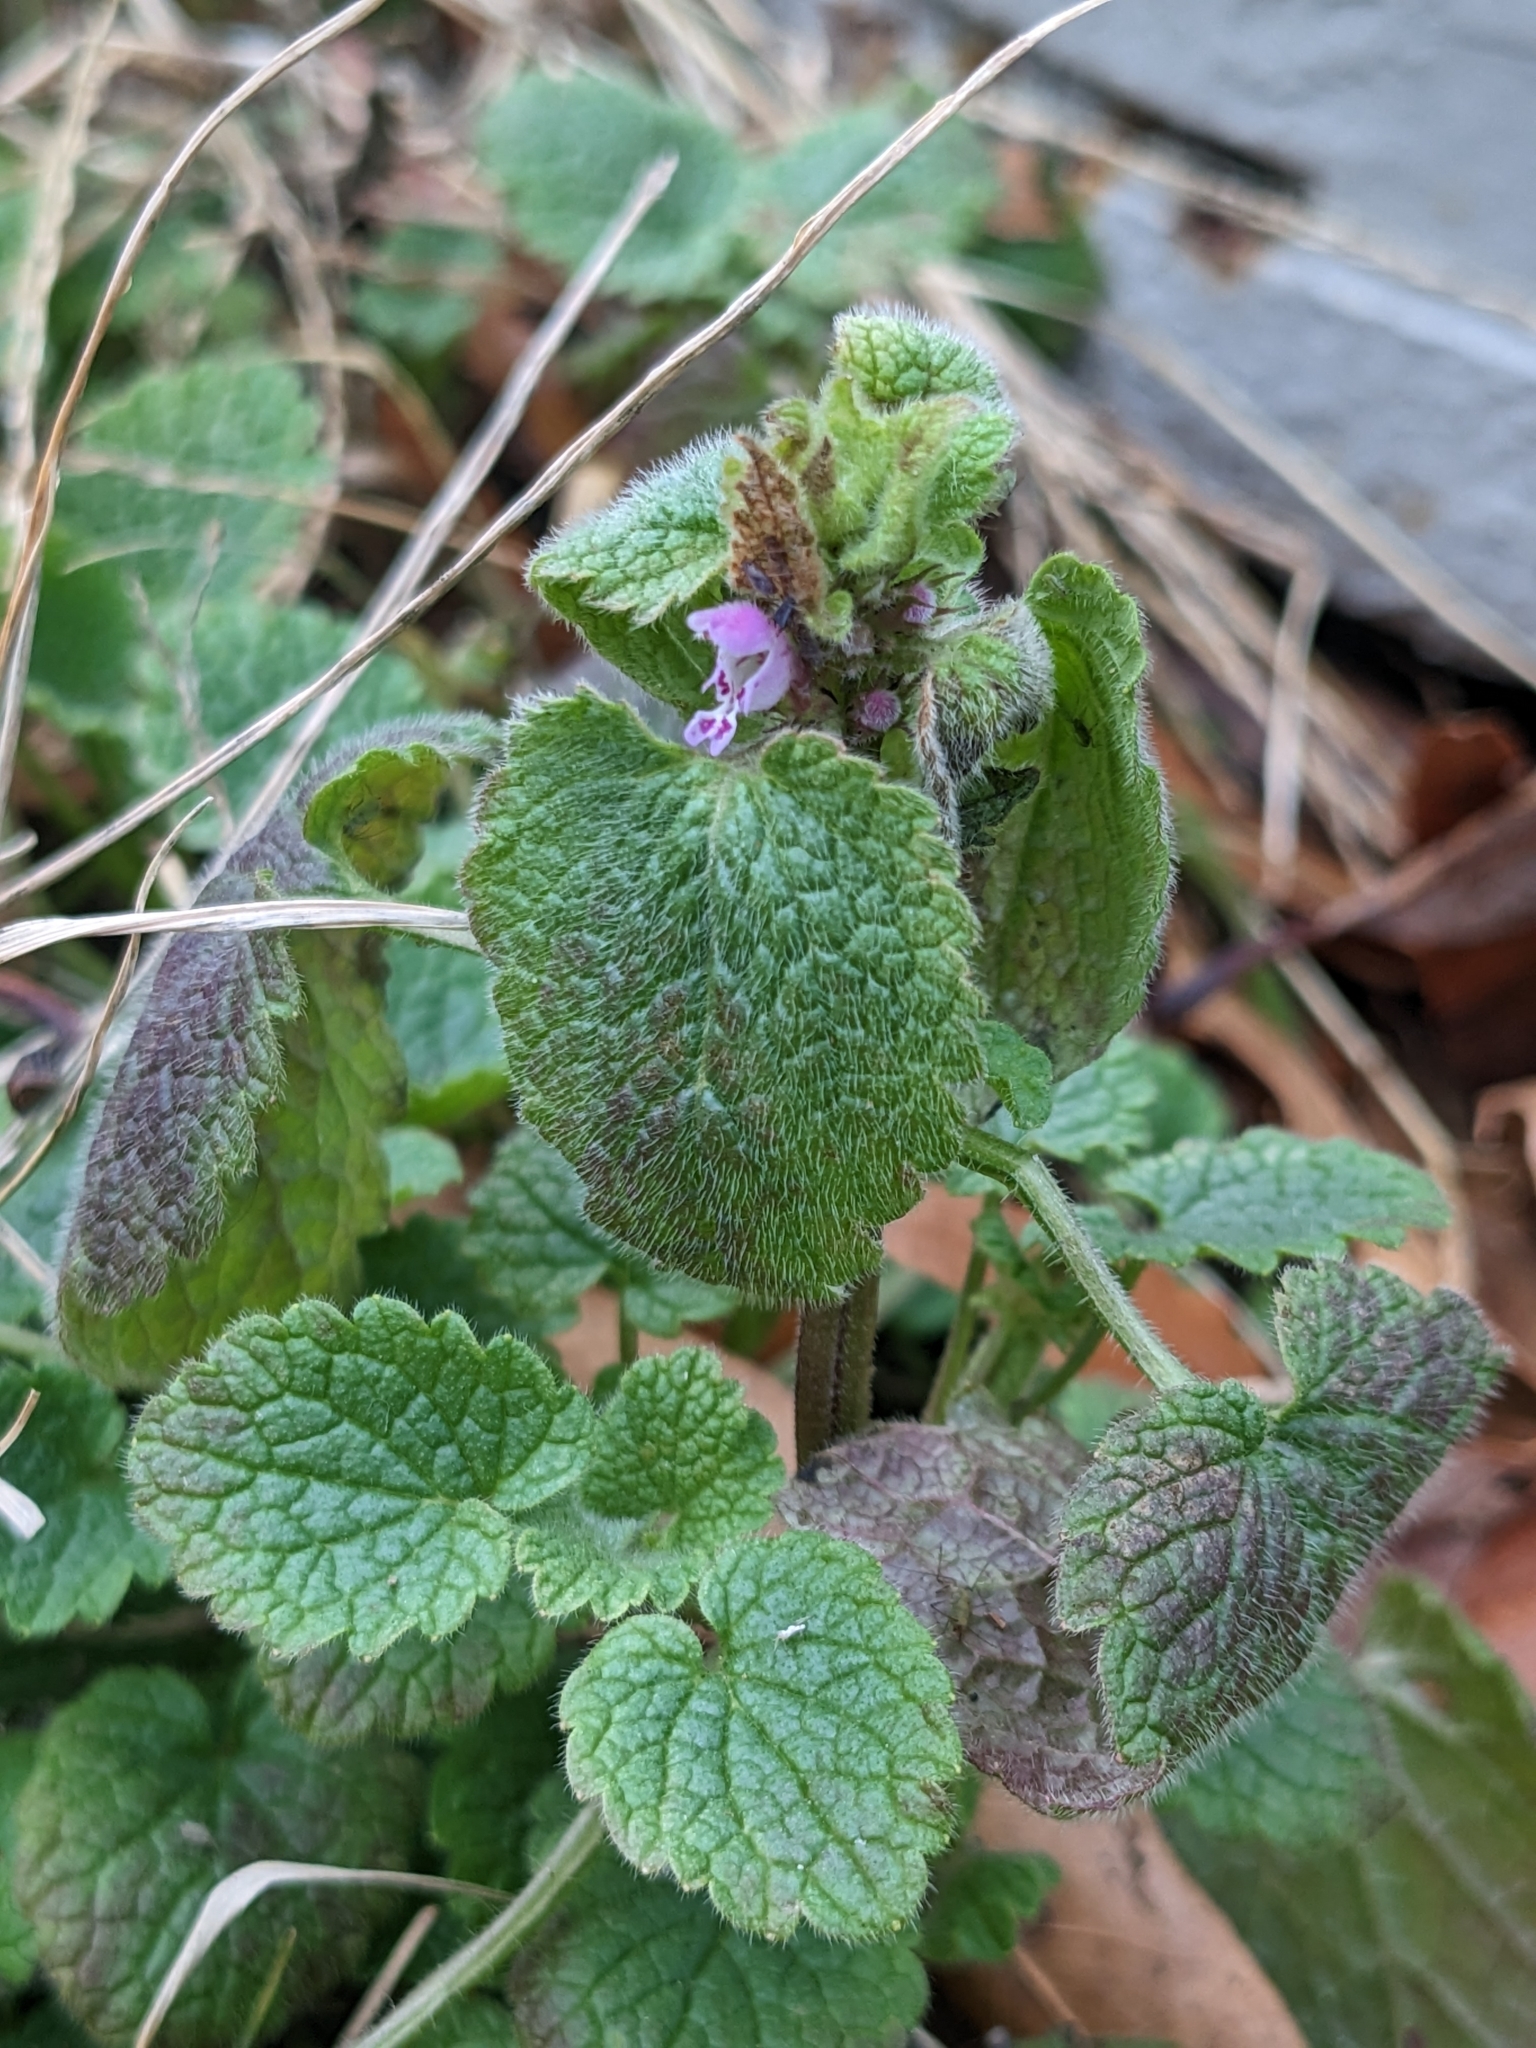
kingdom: Plantae
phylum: Tracheophyta
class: Magnoliopsida
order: Lamiales
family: Lamiaceae
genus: Lamium
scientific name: Lamium purpureum
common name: Red dead-nettle
